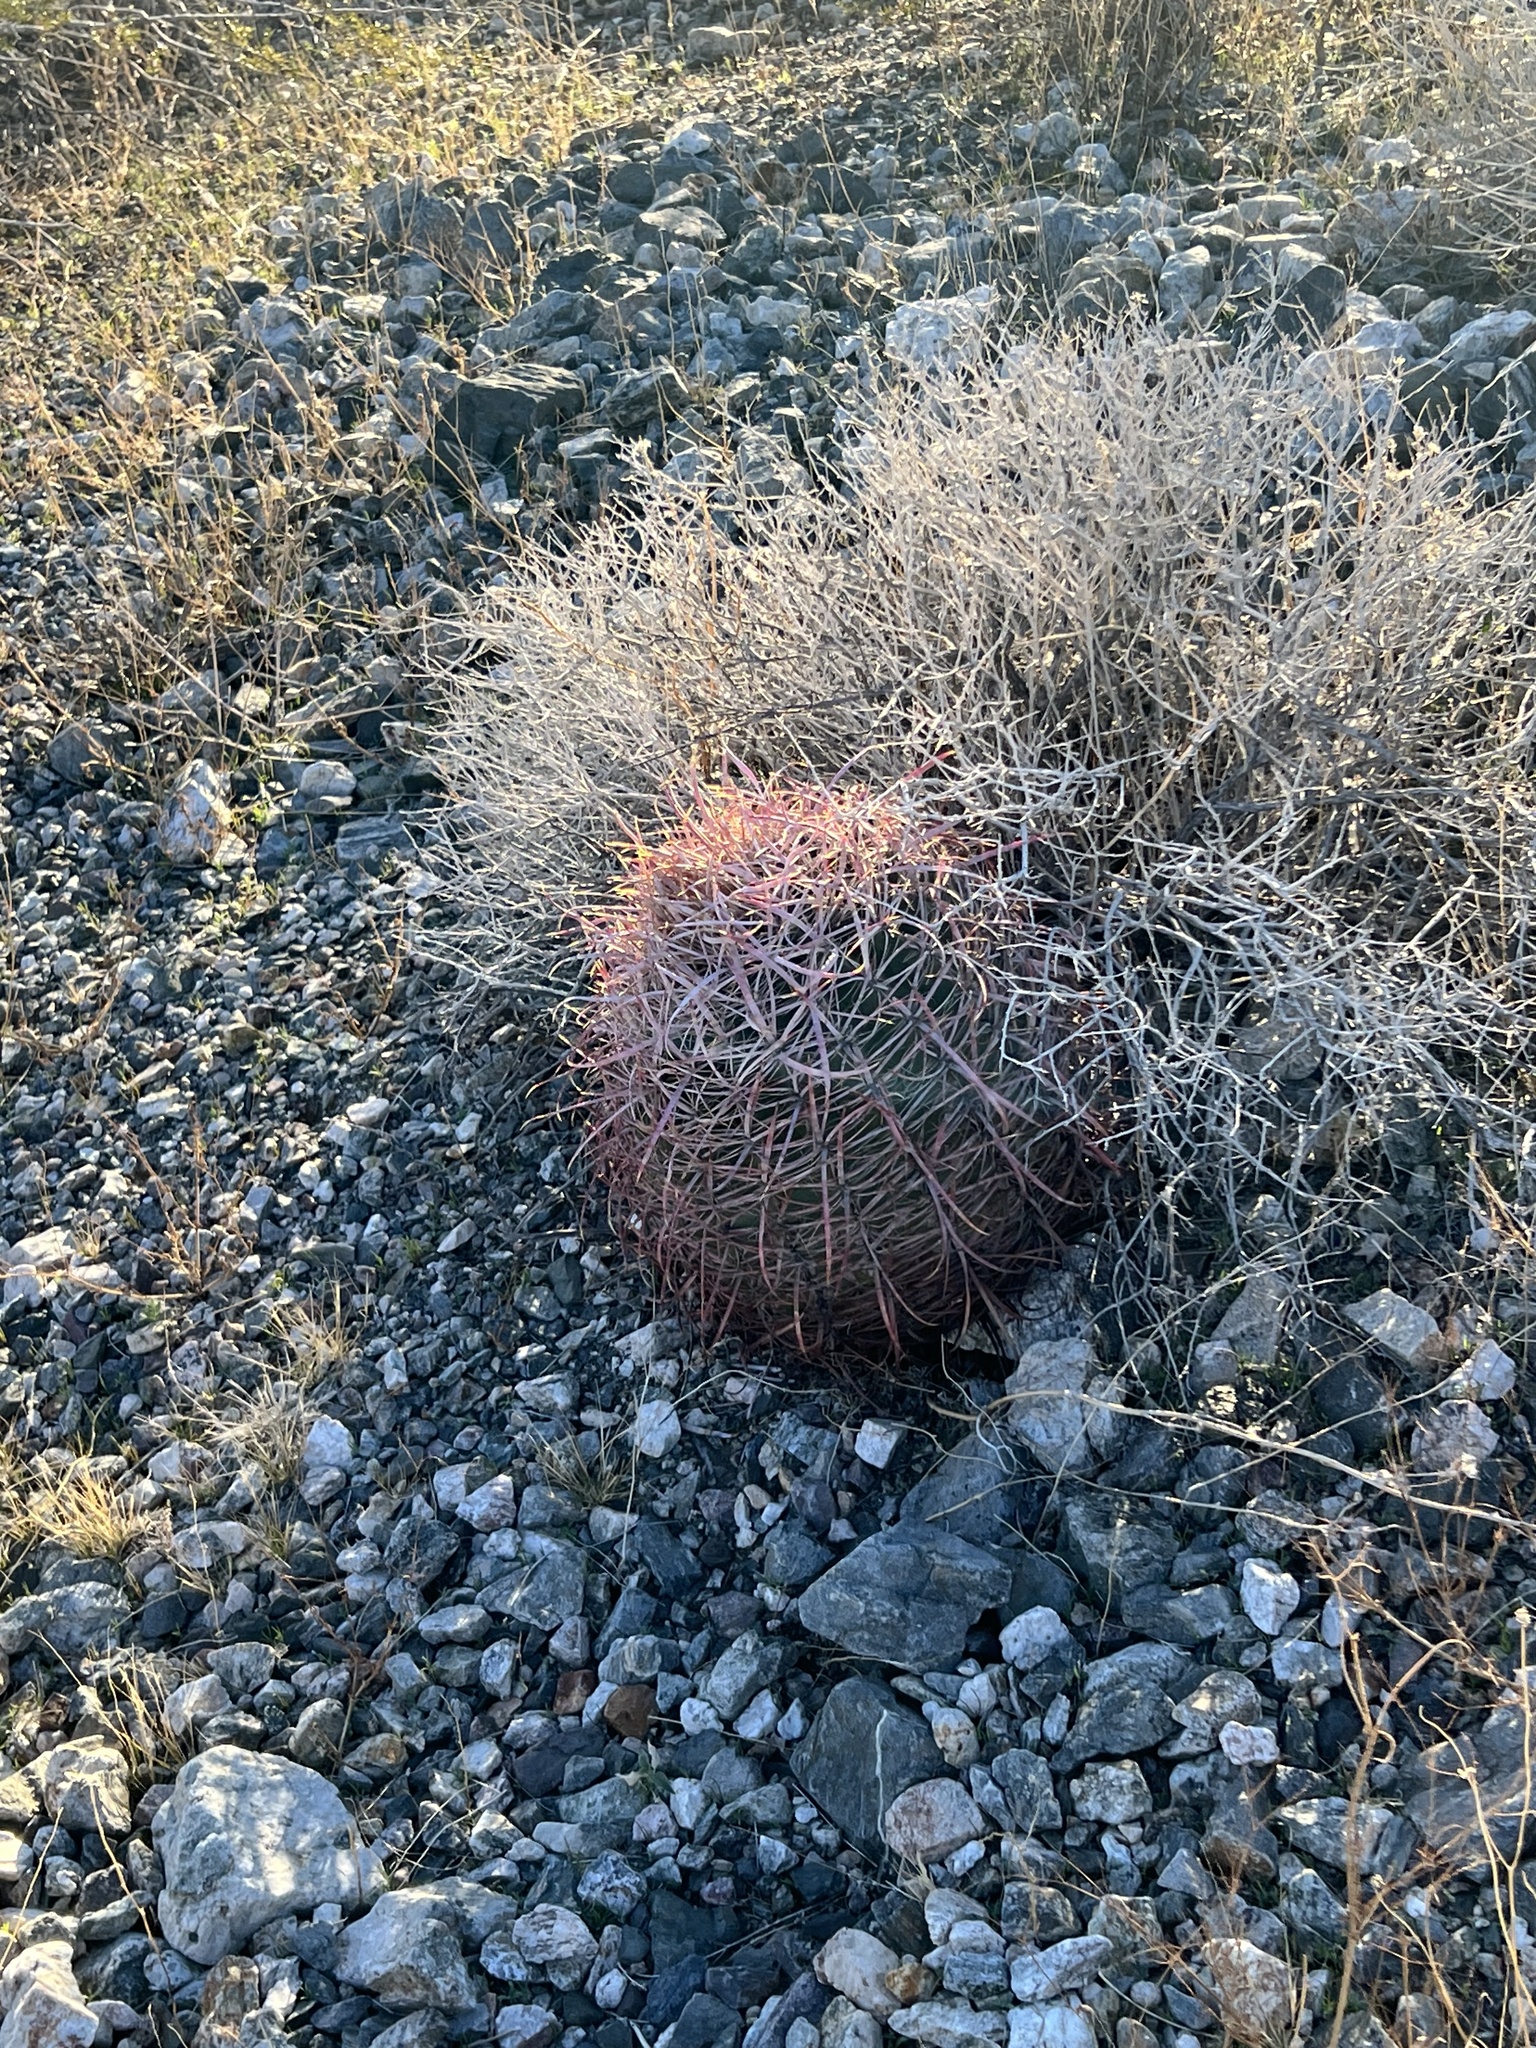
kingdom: Plantae
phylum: Tracheophyta
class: Magnoliopsida
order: Caryophyllales
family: Cactaceae
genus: Ferocactus
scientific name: Ferocactus cylindraceus
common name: California barrel cactus
